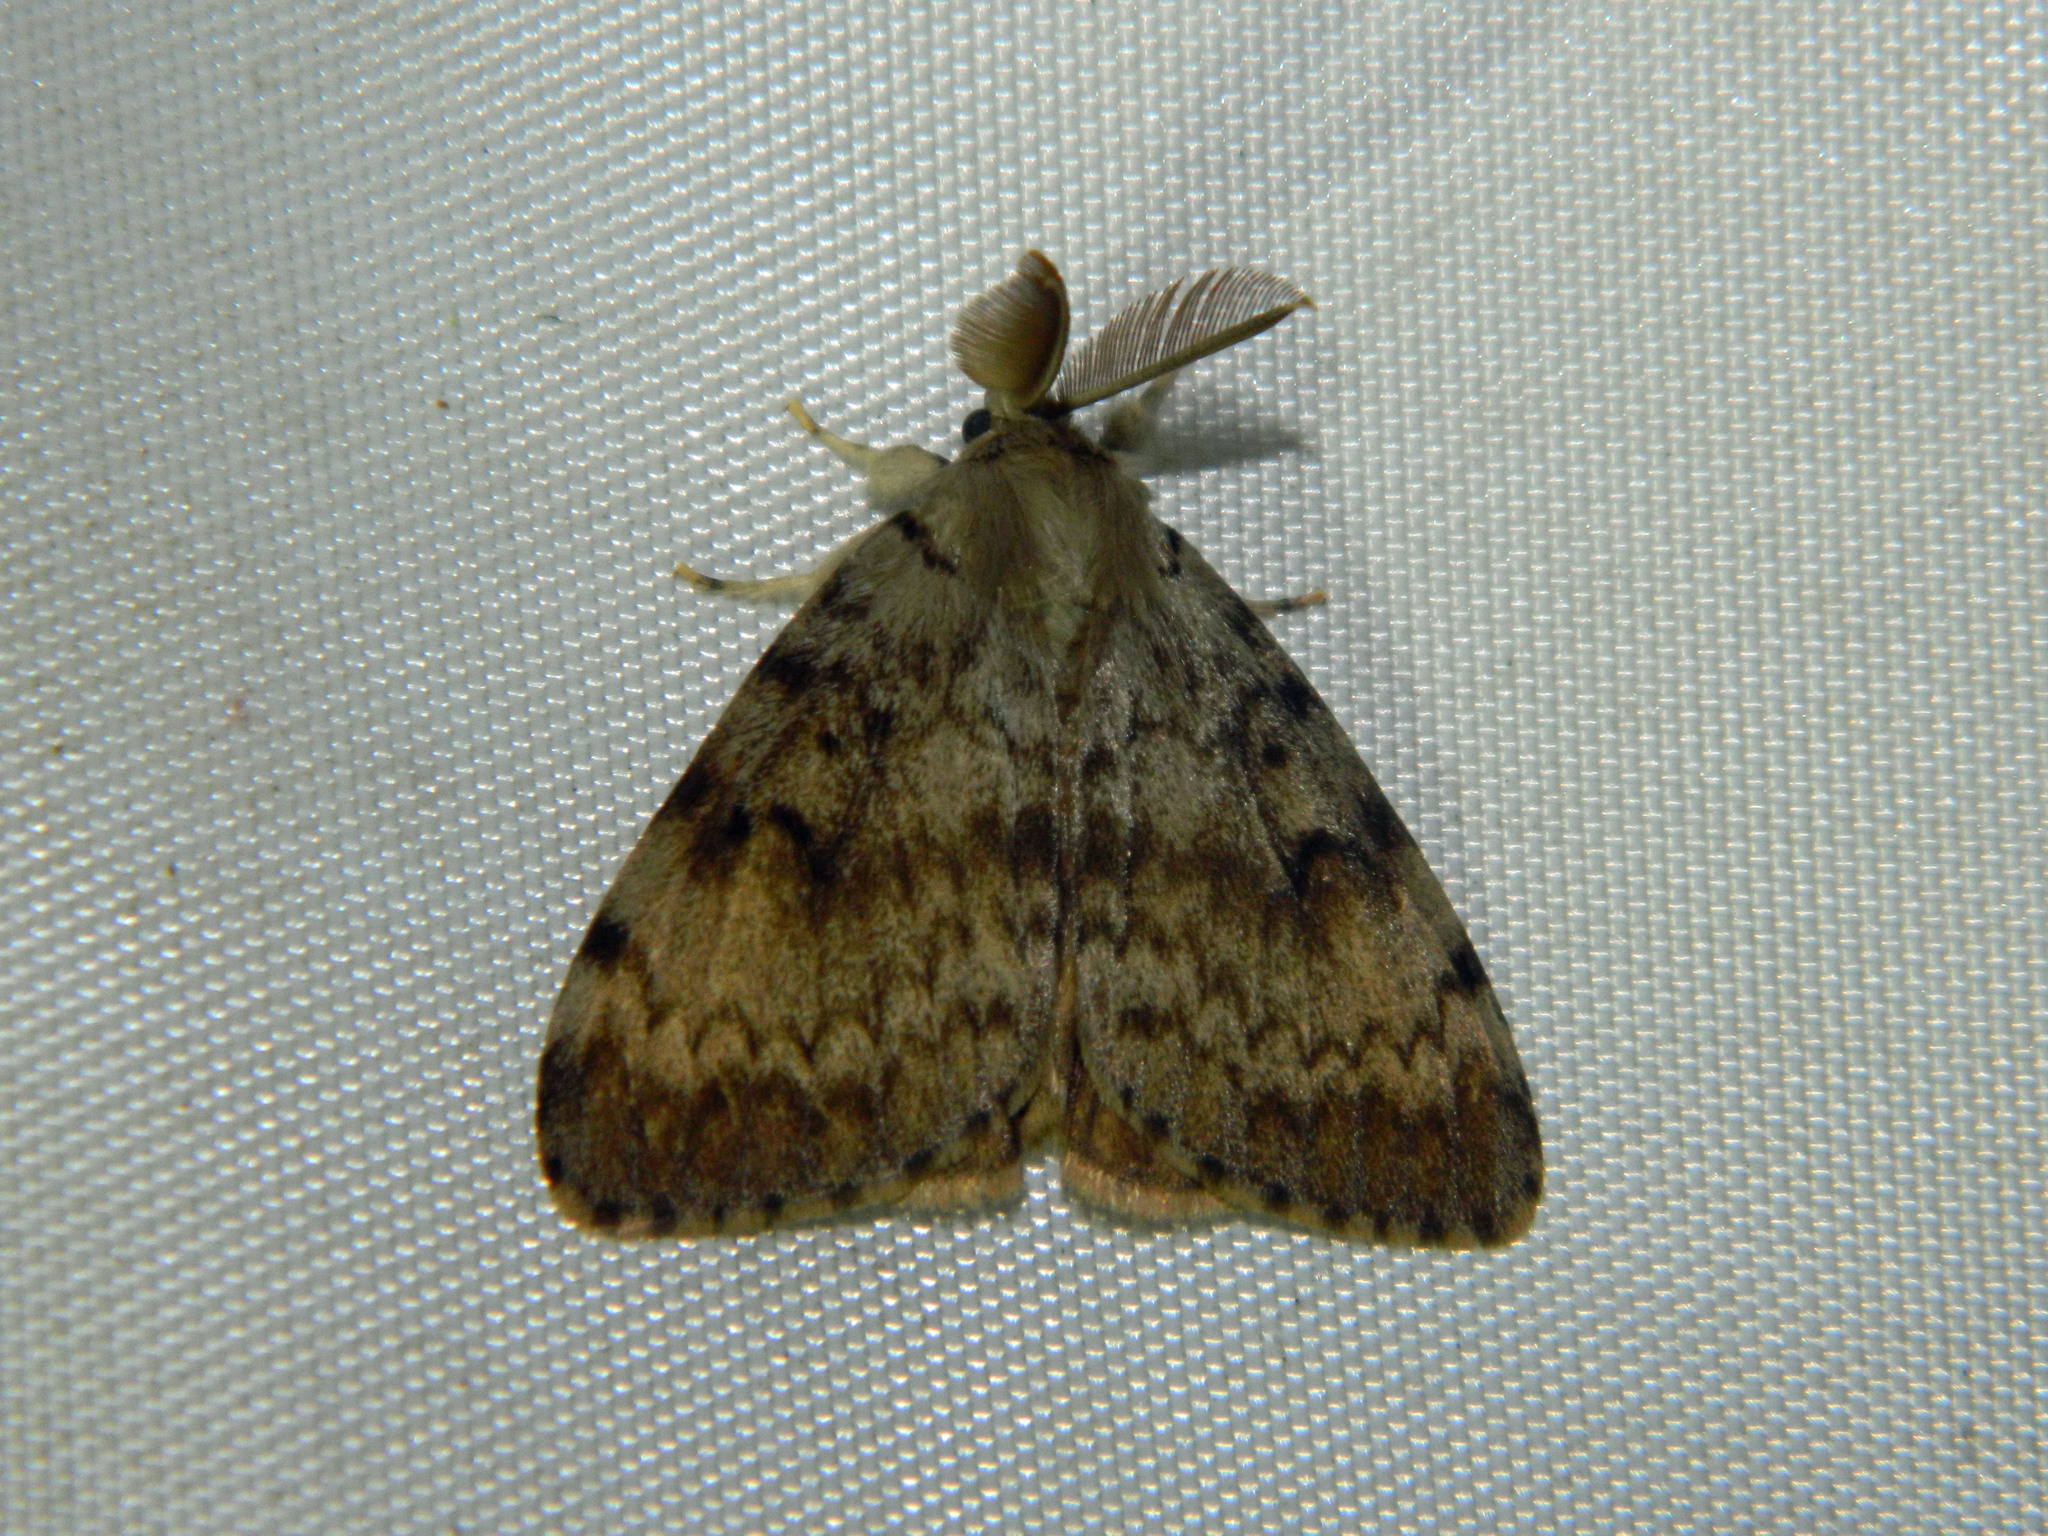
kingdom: Animalia
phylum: Arthropoda
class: Insecta
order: Lepidoptera
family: Erebidae
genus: Lymantria
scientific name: Lymantria dispar
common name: Gypsy moth
